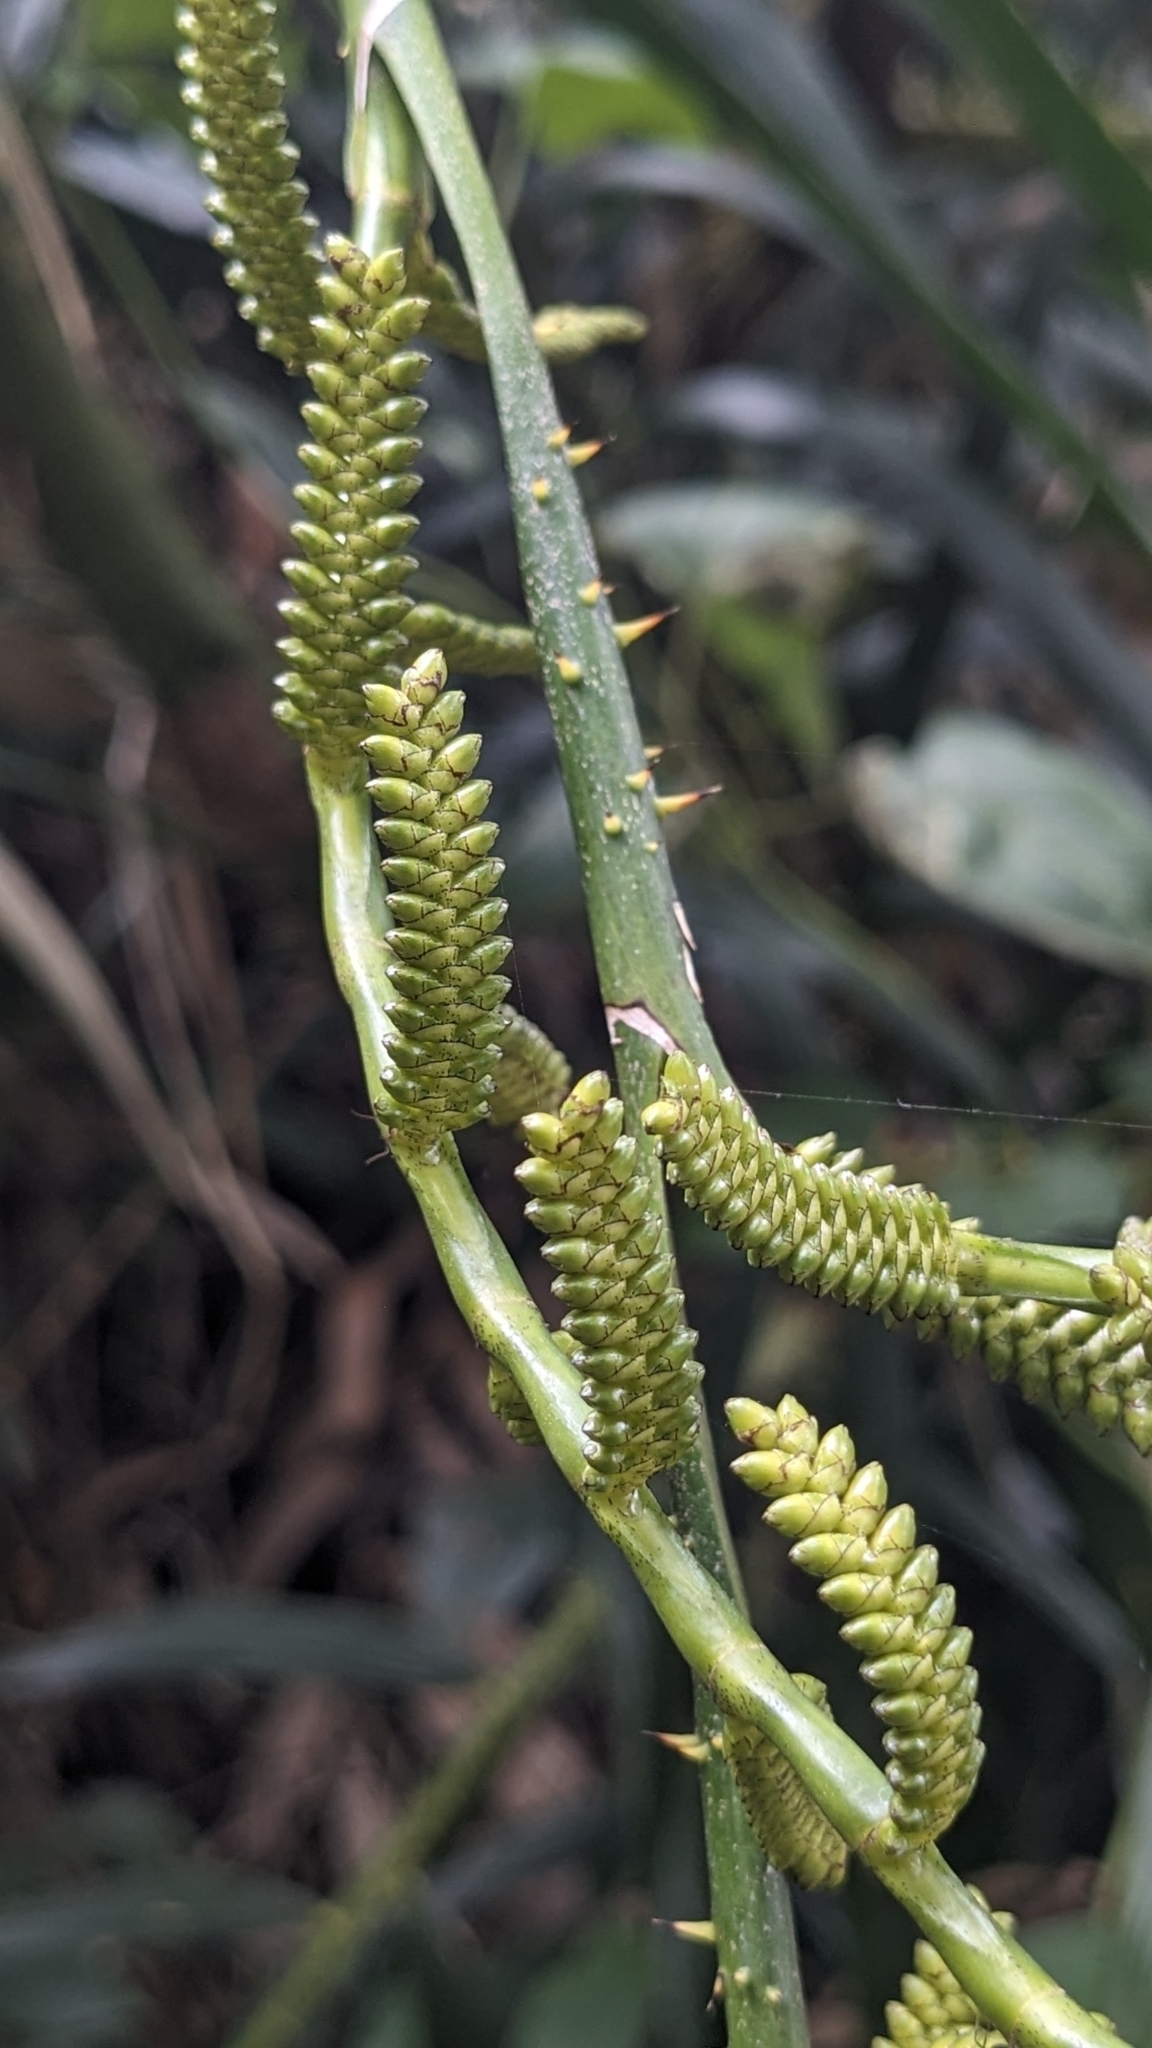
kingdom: Plantae
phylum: Tracheophyta
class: Liliopsida
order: Arecales
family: Arecaceae
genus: Calamus
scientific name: Calamus formosanus
